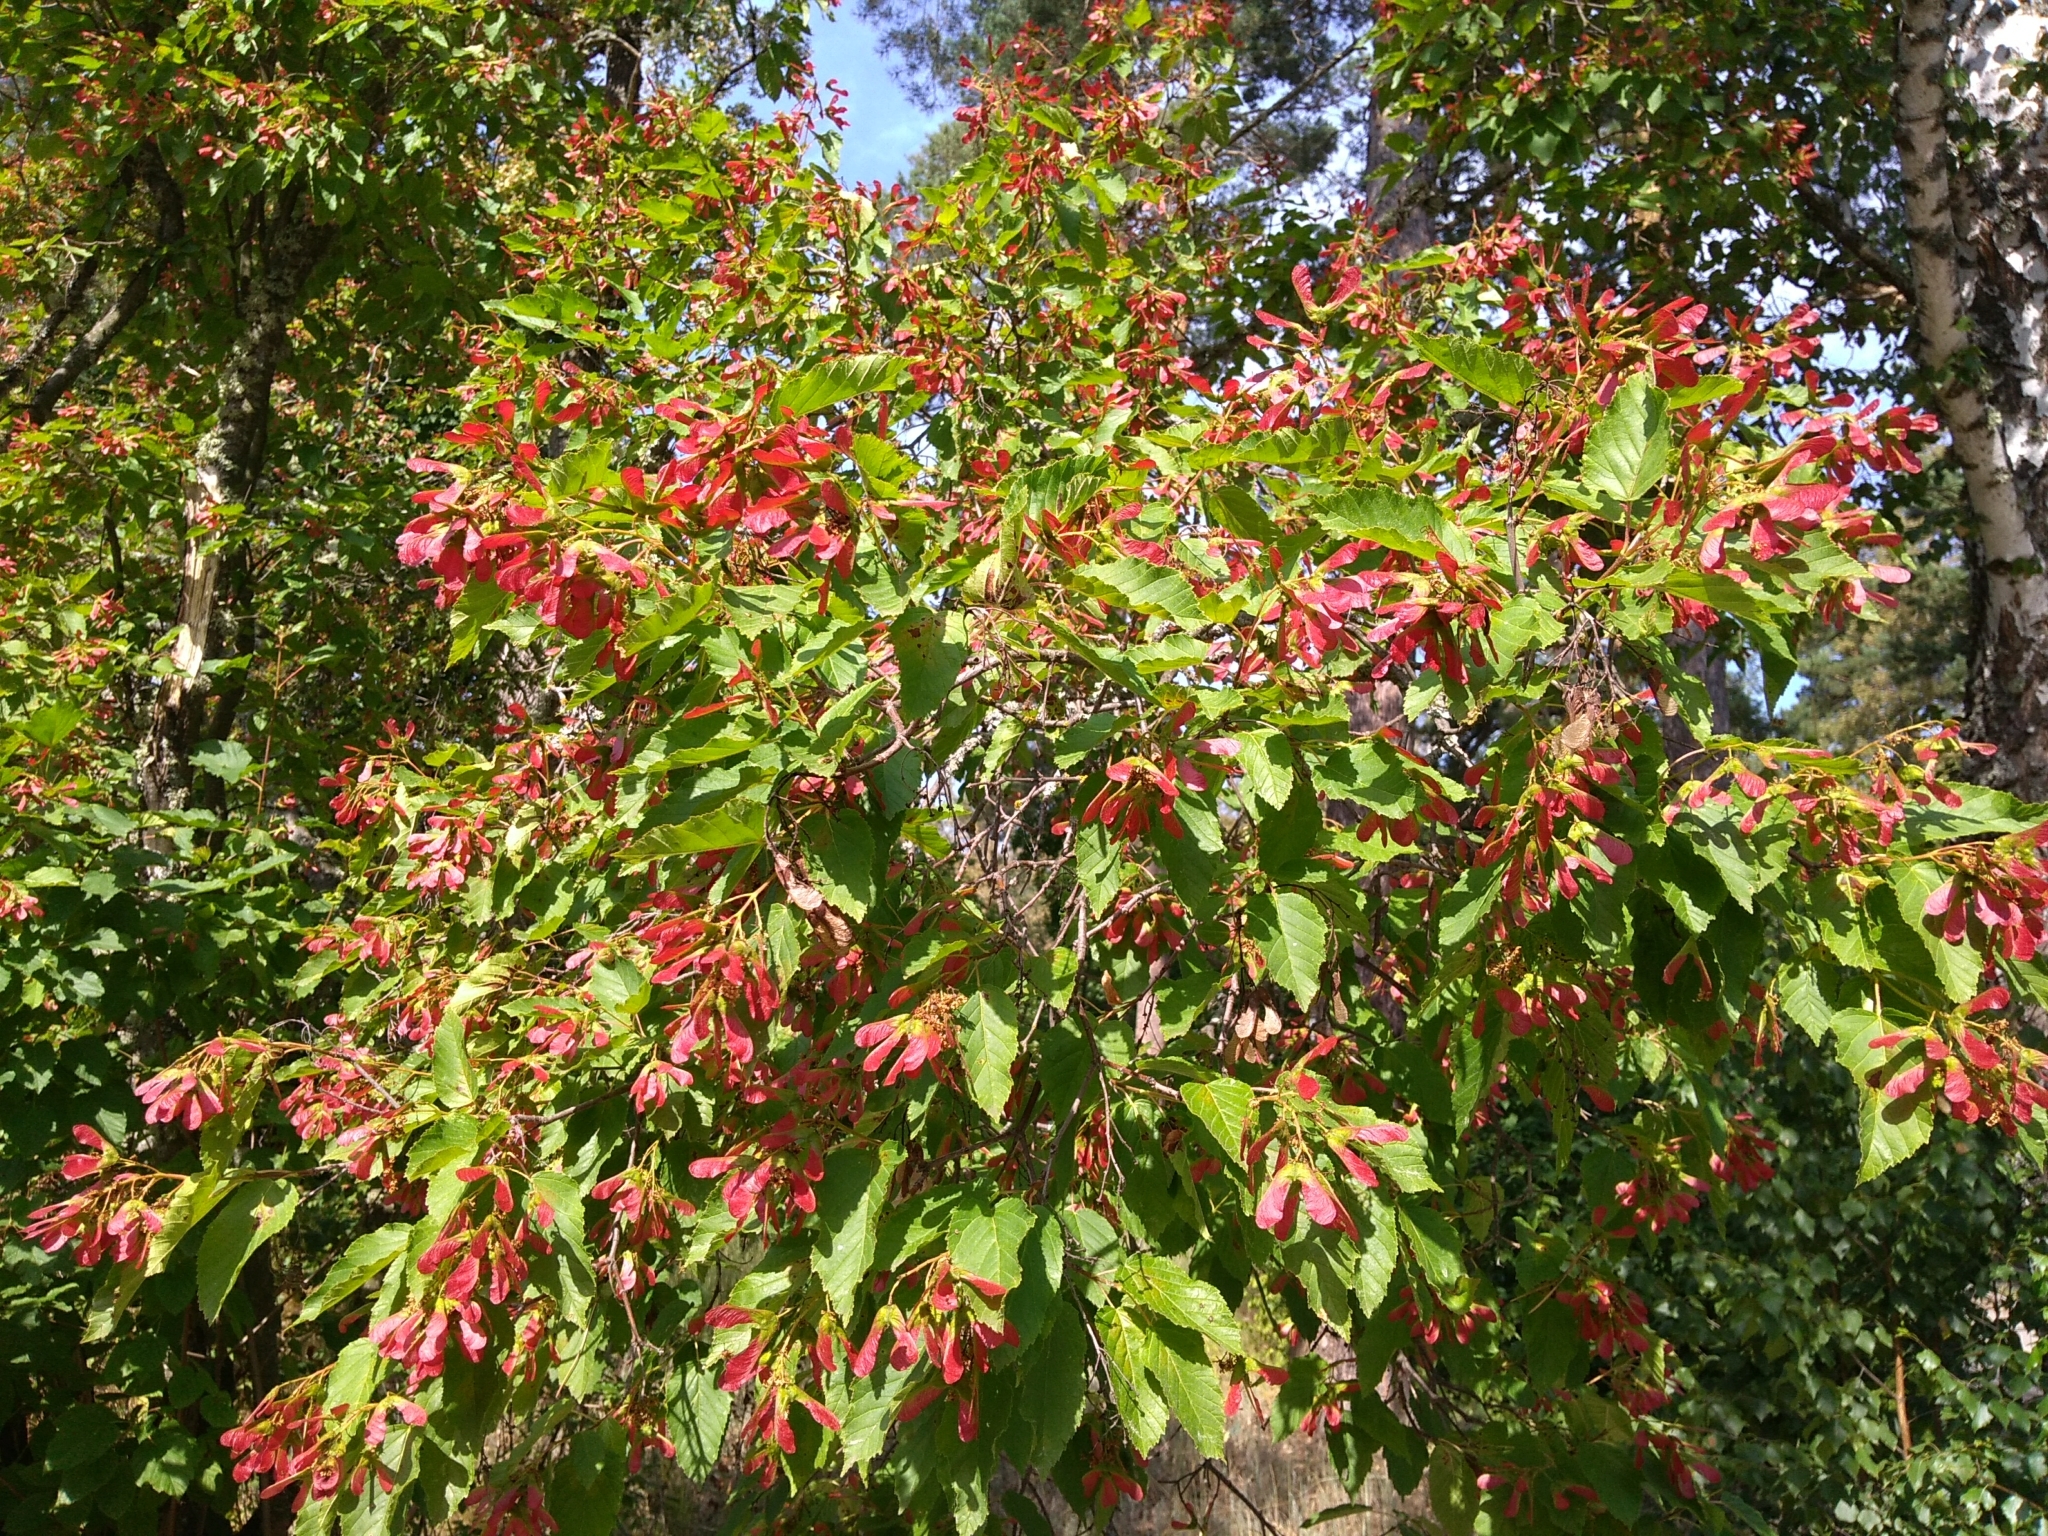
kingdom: Plantae
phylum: Tracheophyta
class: Magnoliopsida
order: Sapindales
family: Sapindaceae
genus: Acer
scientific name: Acer tataricum
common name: Tartar maple
